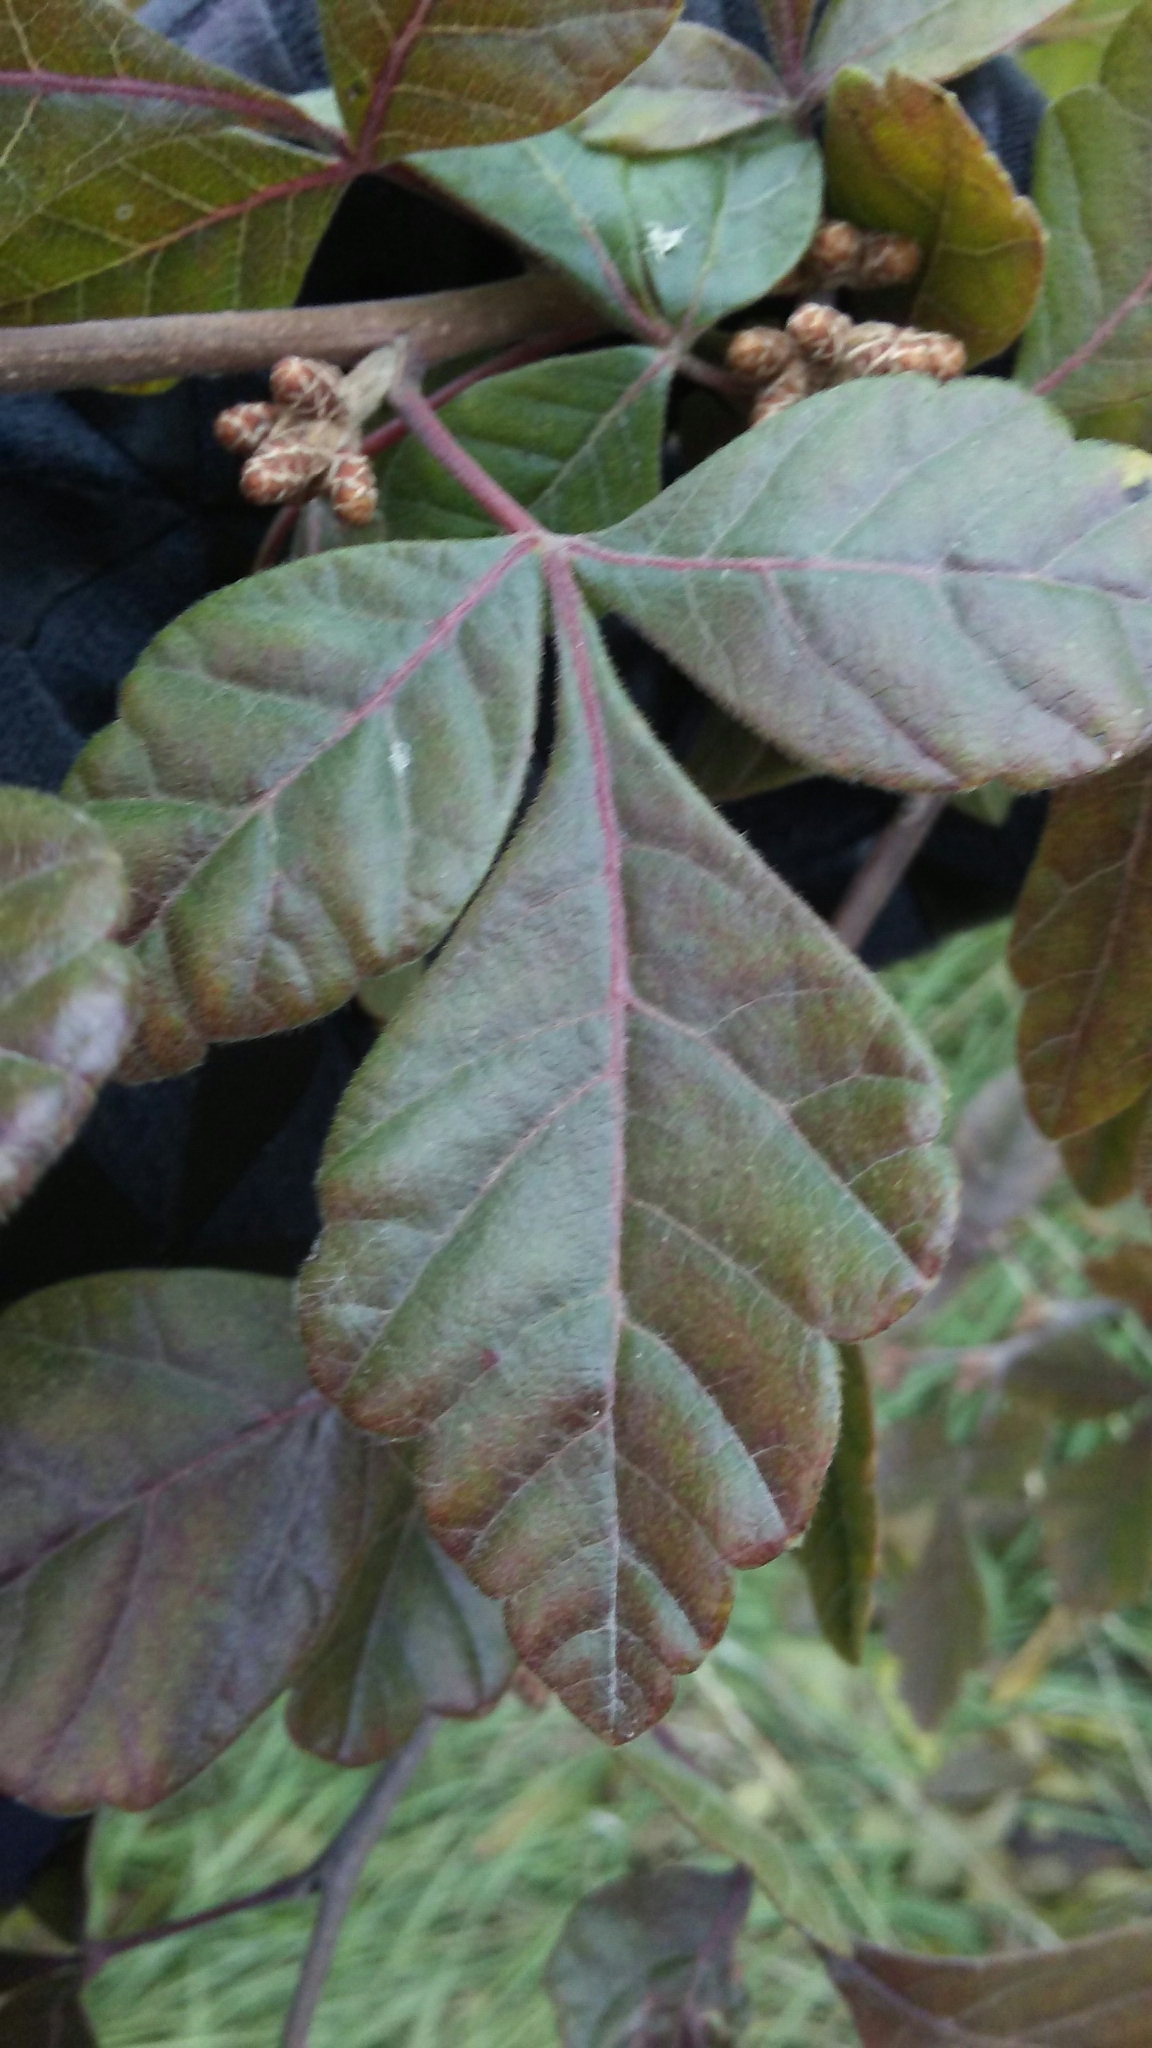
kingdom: Plantae
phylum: Tracheophyta
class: Magnoliopsida
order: Sapindales
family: Anacardiaceae
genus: Rhus
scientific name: Rhus aromatica
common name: Aromatic sumac
